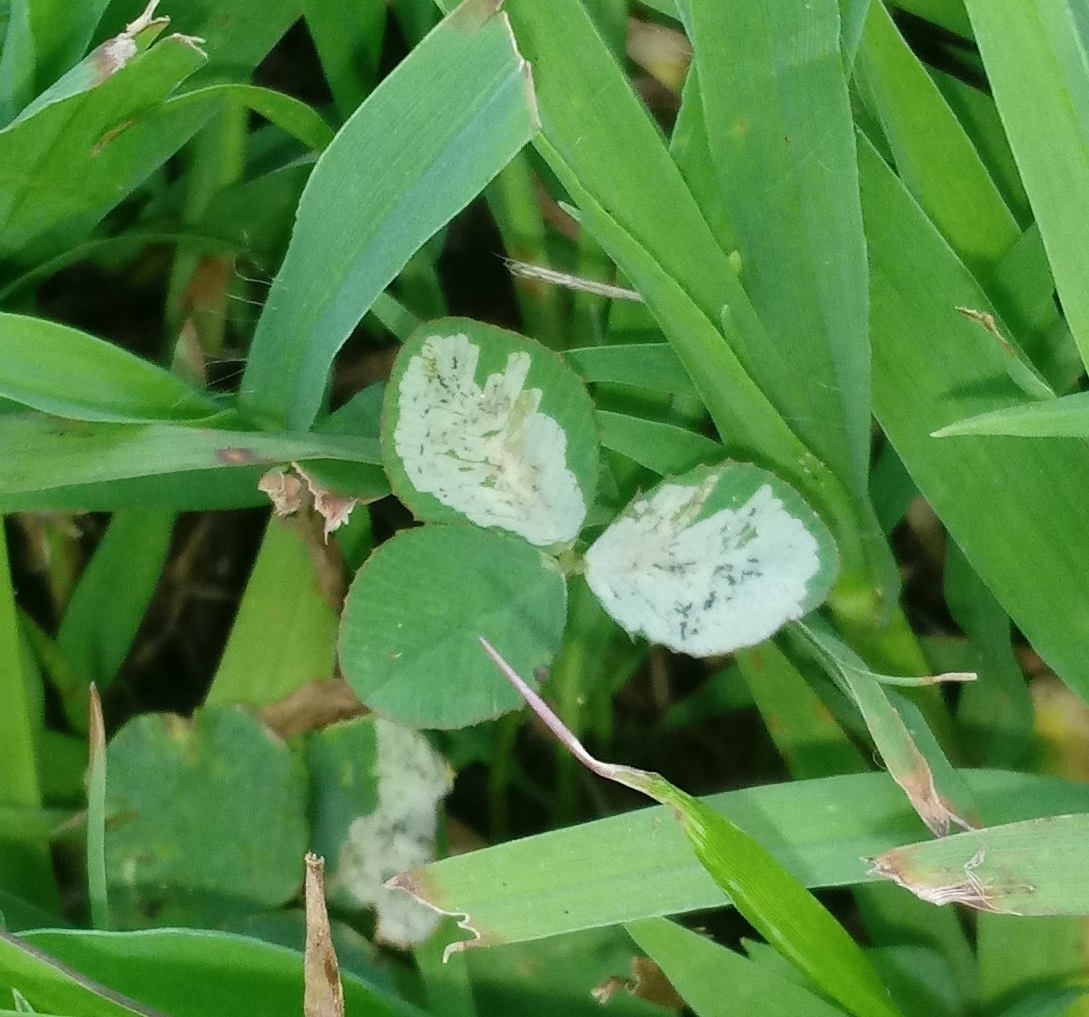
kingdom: Animalia
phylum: Arthropoda
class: Insecta
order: Diptera
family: Agromyzidae
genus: Liriomyza
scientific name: Liriomyza fricki
